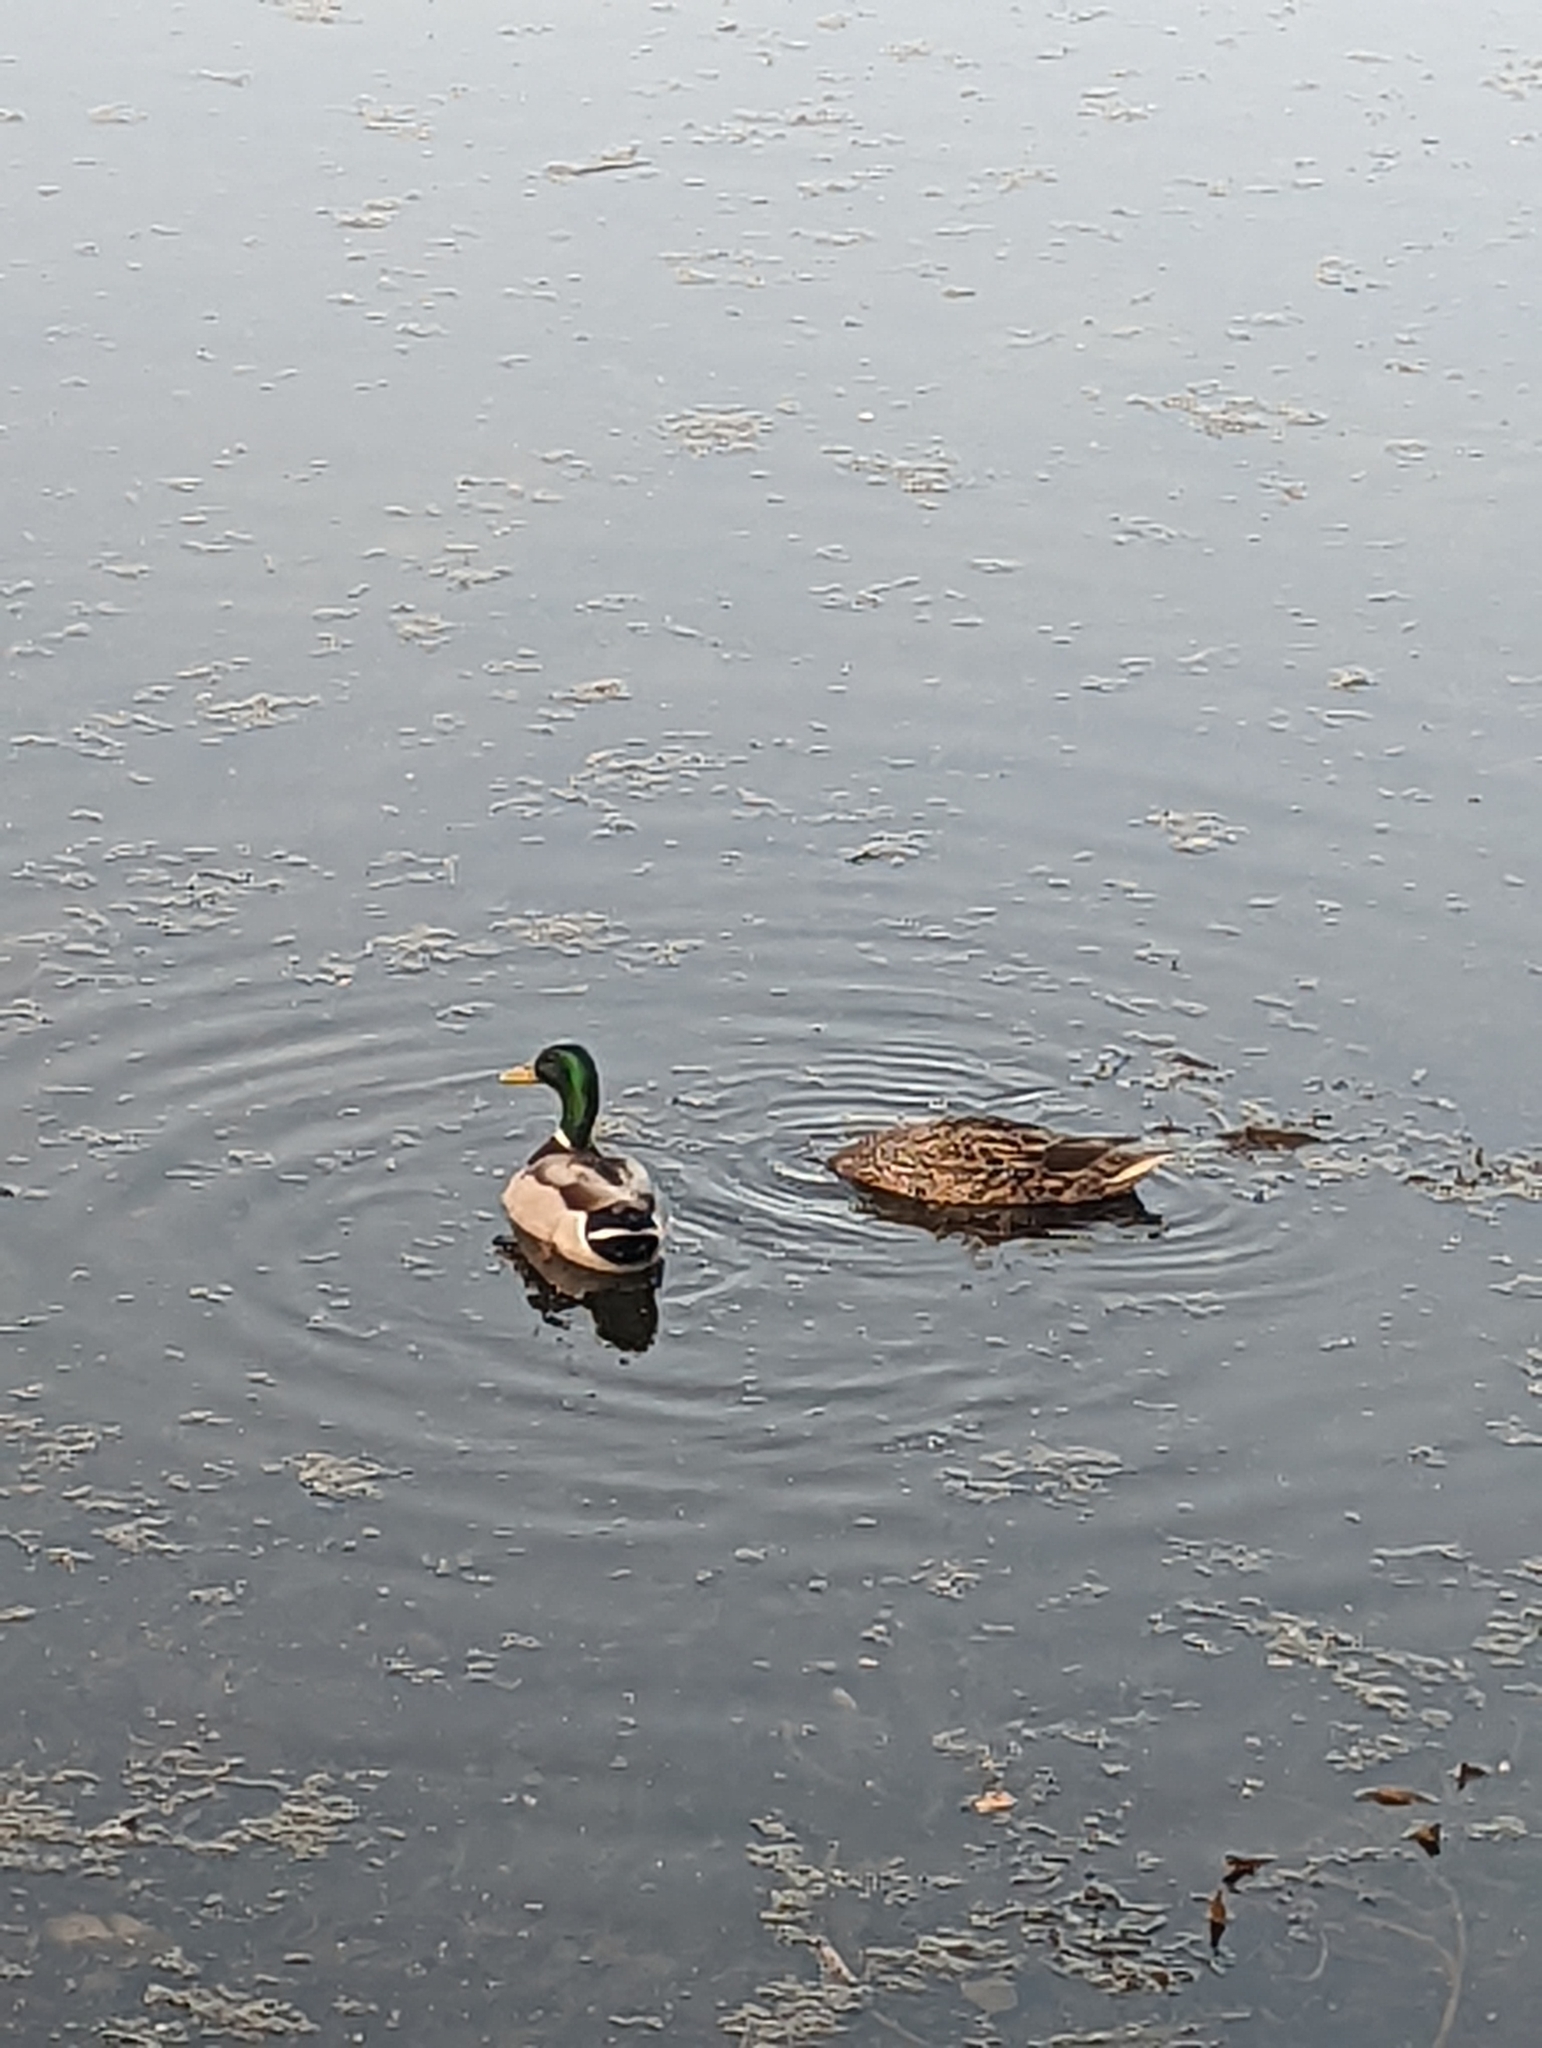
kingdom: Animalia
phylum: Chordata
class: Aves
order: Anseriformes
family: Anatidae
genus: Anas
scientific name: Anas platyrhynchos
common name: Mallard
